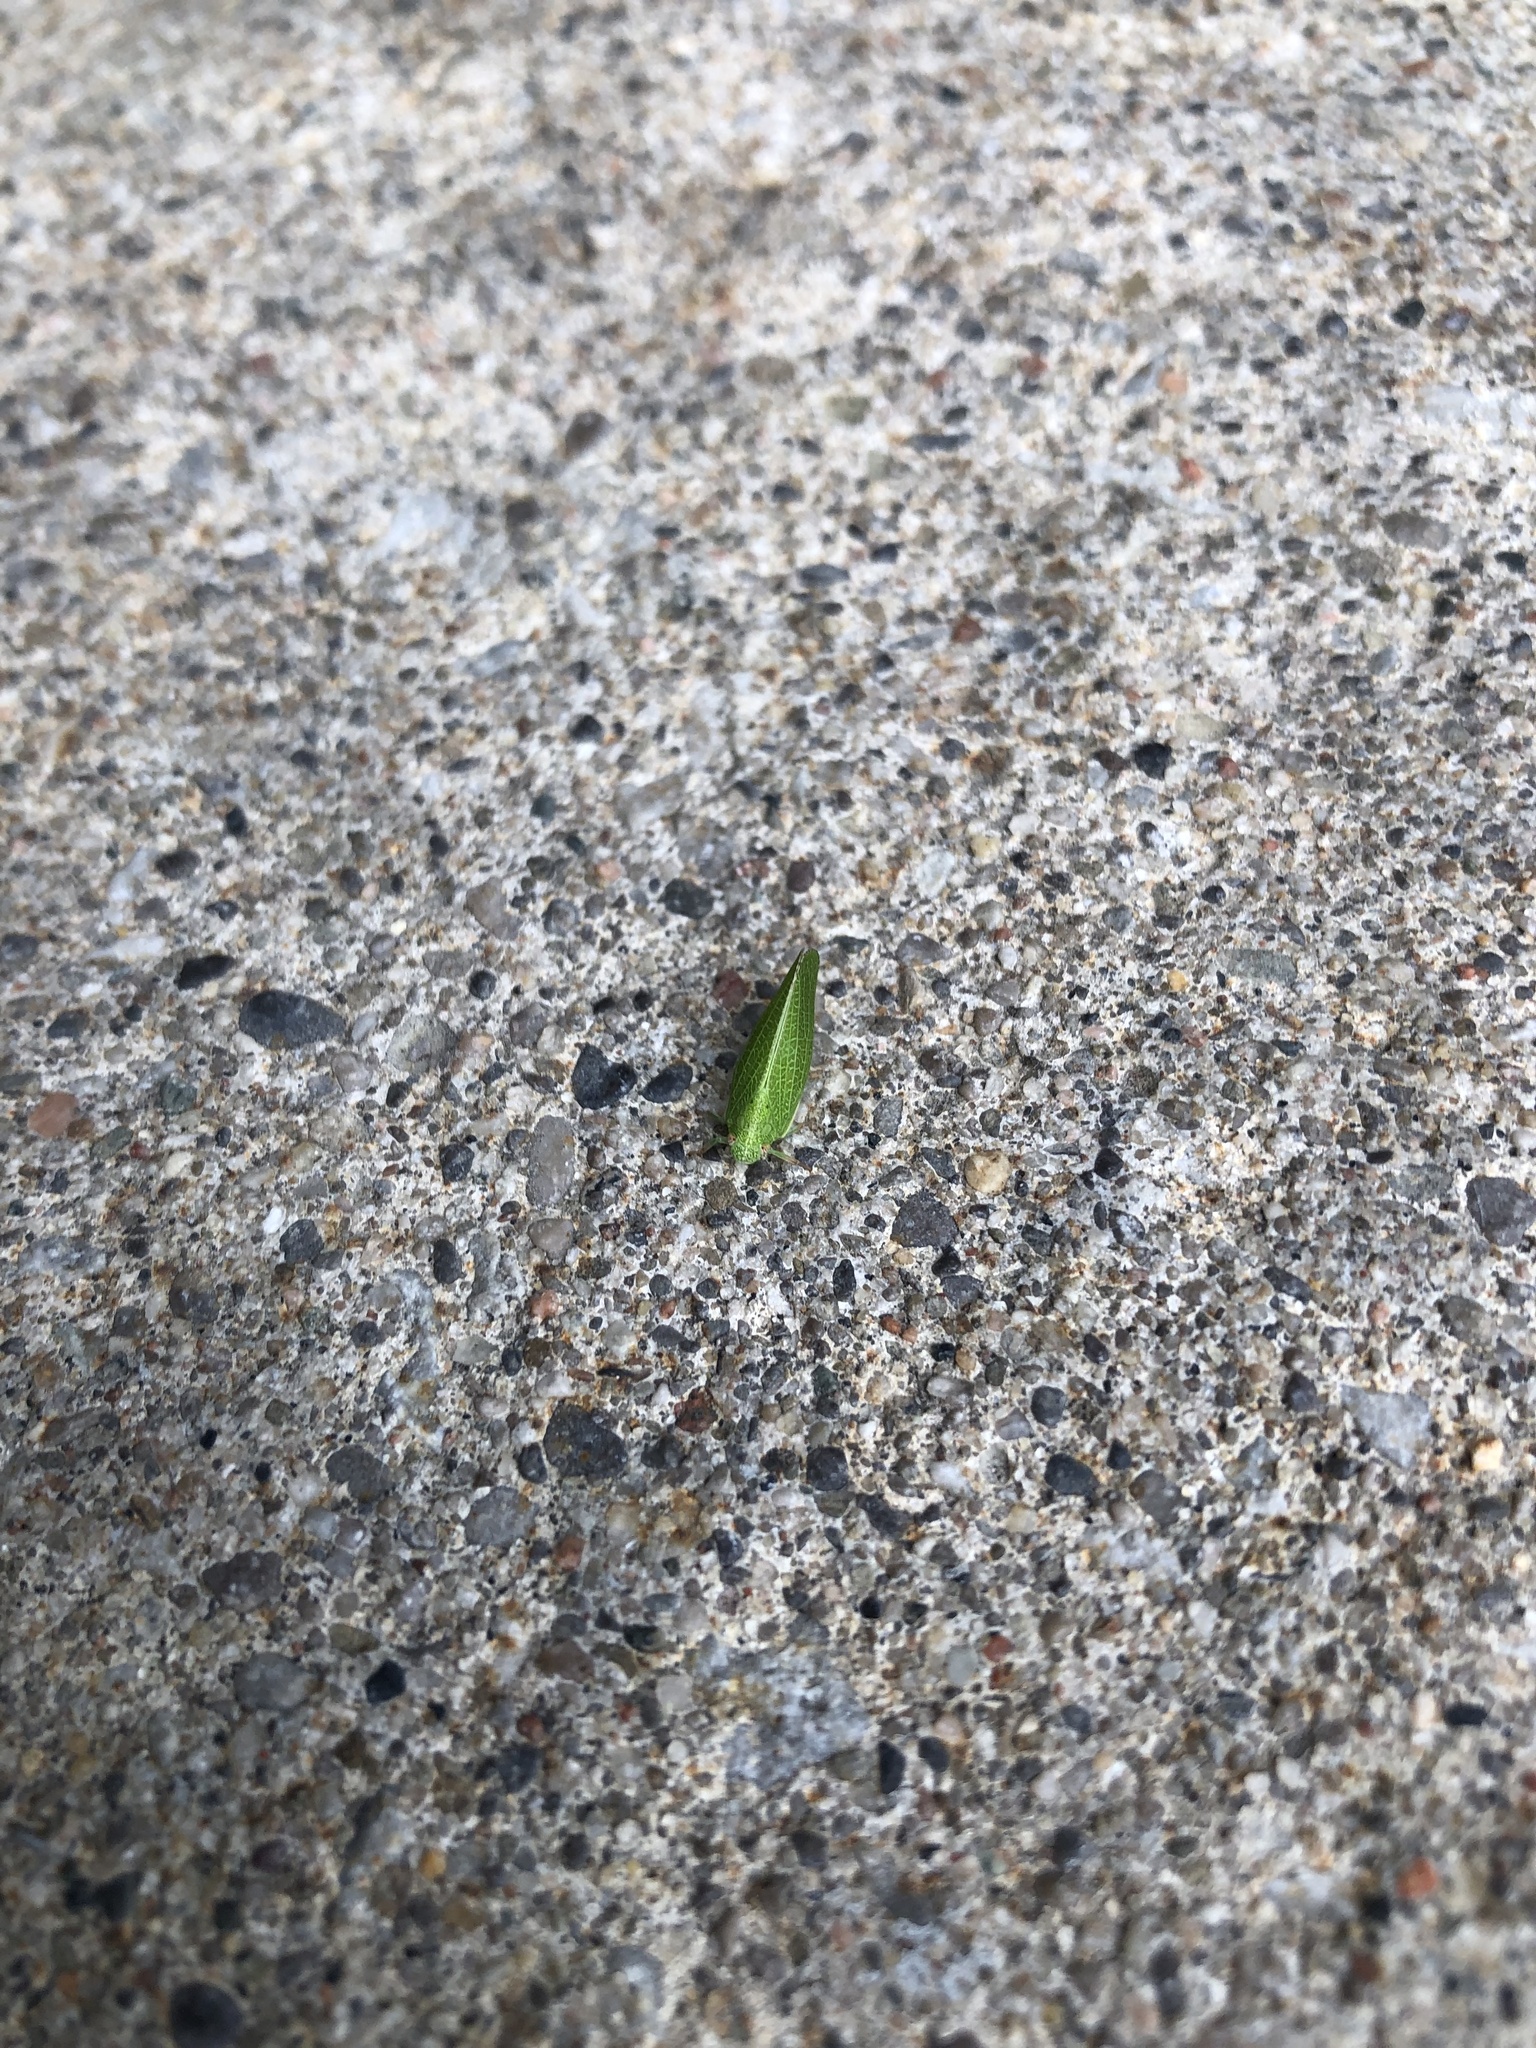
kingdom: Animalia
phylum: Arthropoda
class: Insecta
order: Hemiptera
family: Acanaloniidae
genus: Acanalonia
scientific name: Acanalonia conica
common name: Green cone-headed planthopper
